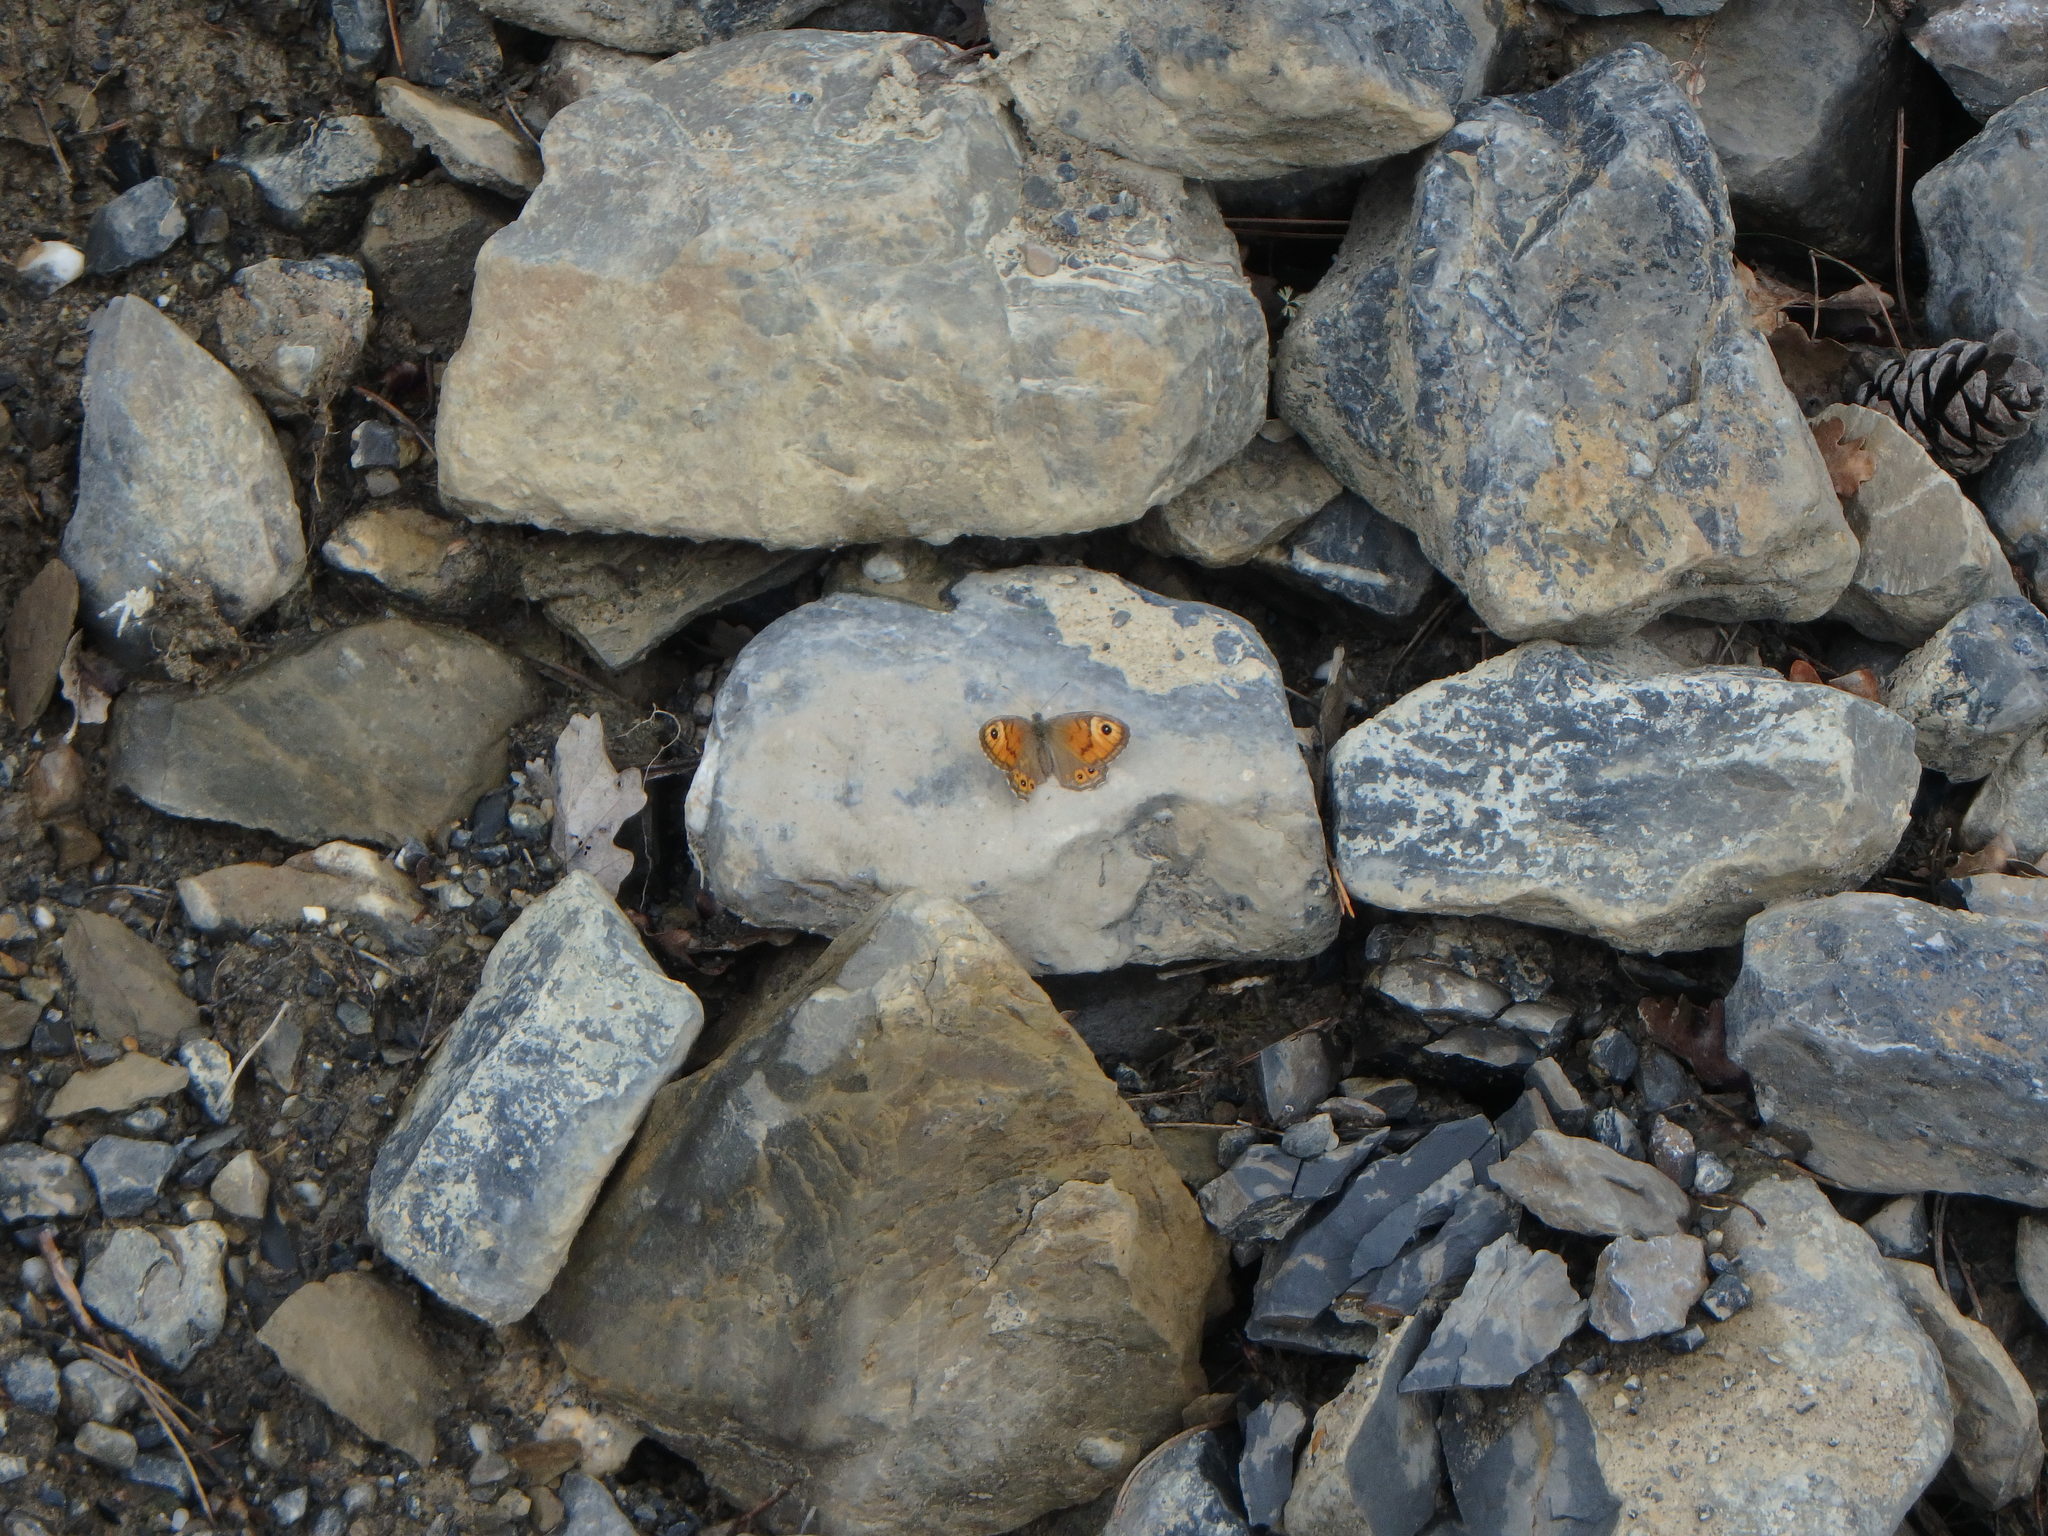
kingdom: Animalia
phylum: Arthropoda
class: Insecta
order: Lepidoptera
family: Nymphalidae
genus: Pararge
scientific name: Pararge Lasiommata maera
